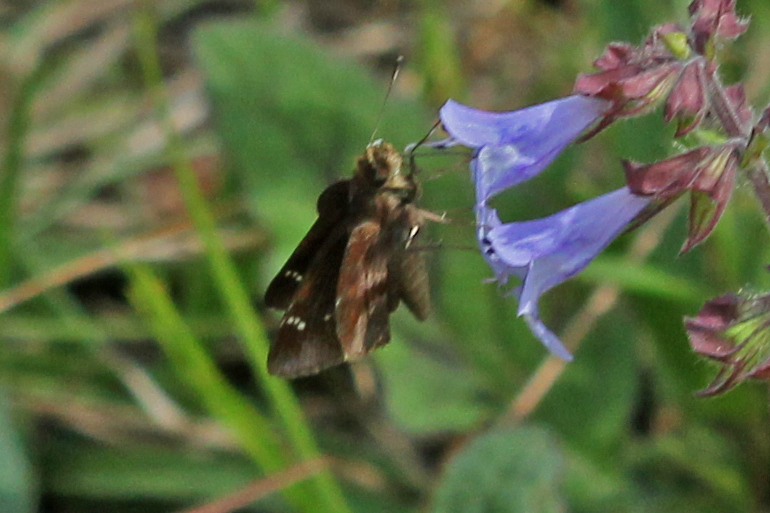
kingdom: Animalia
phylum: Arthropoda
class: Insecta
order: Lepidoptera
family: Hesperiidae
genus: Lerema
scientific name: Lerema accius
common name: Clouded skipper
